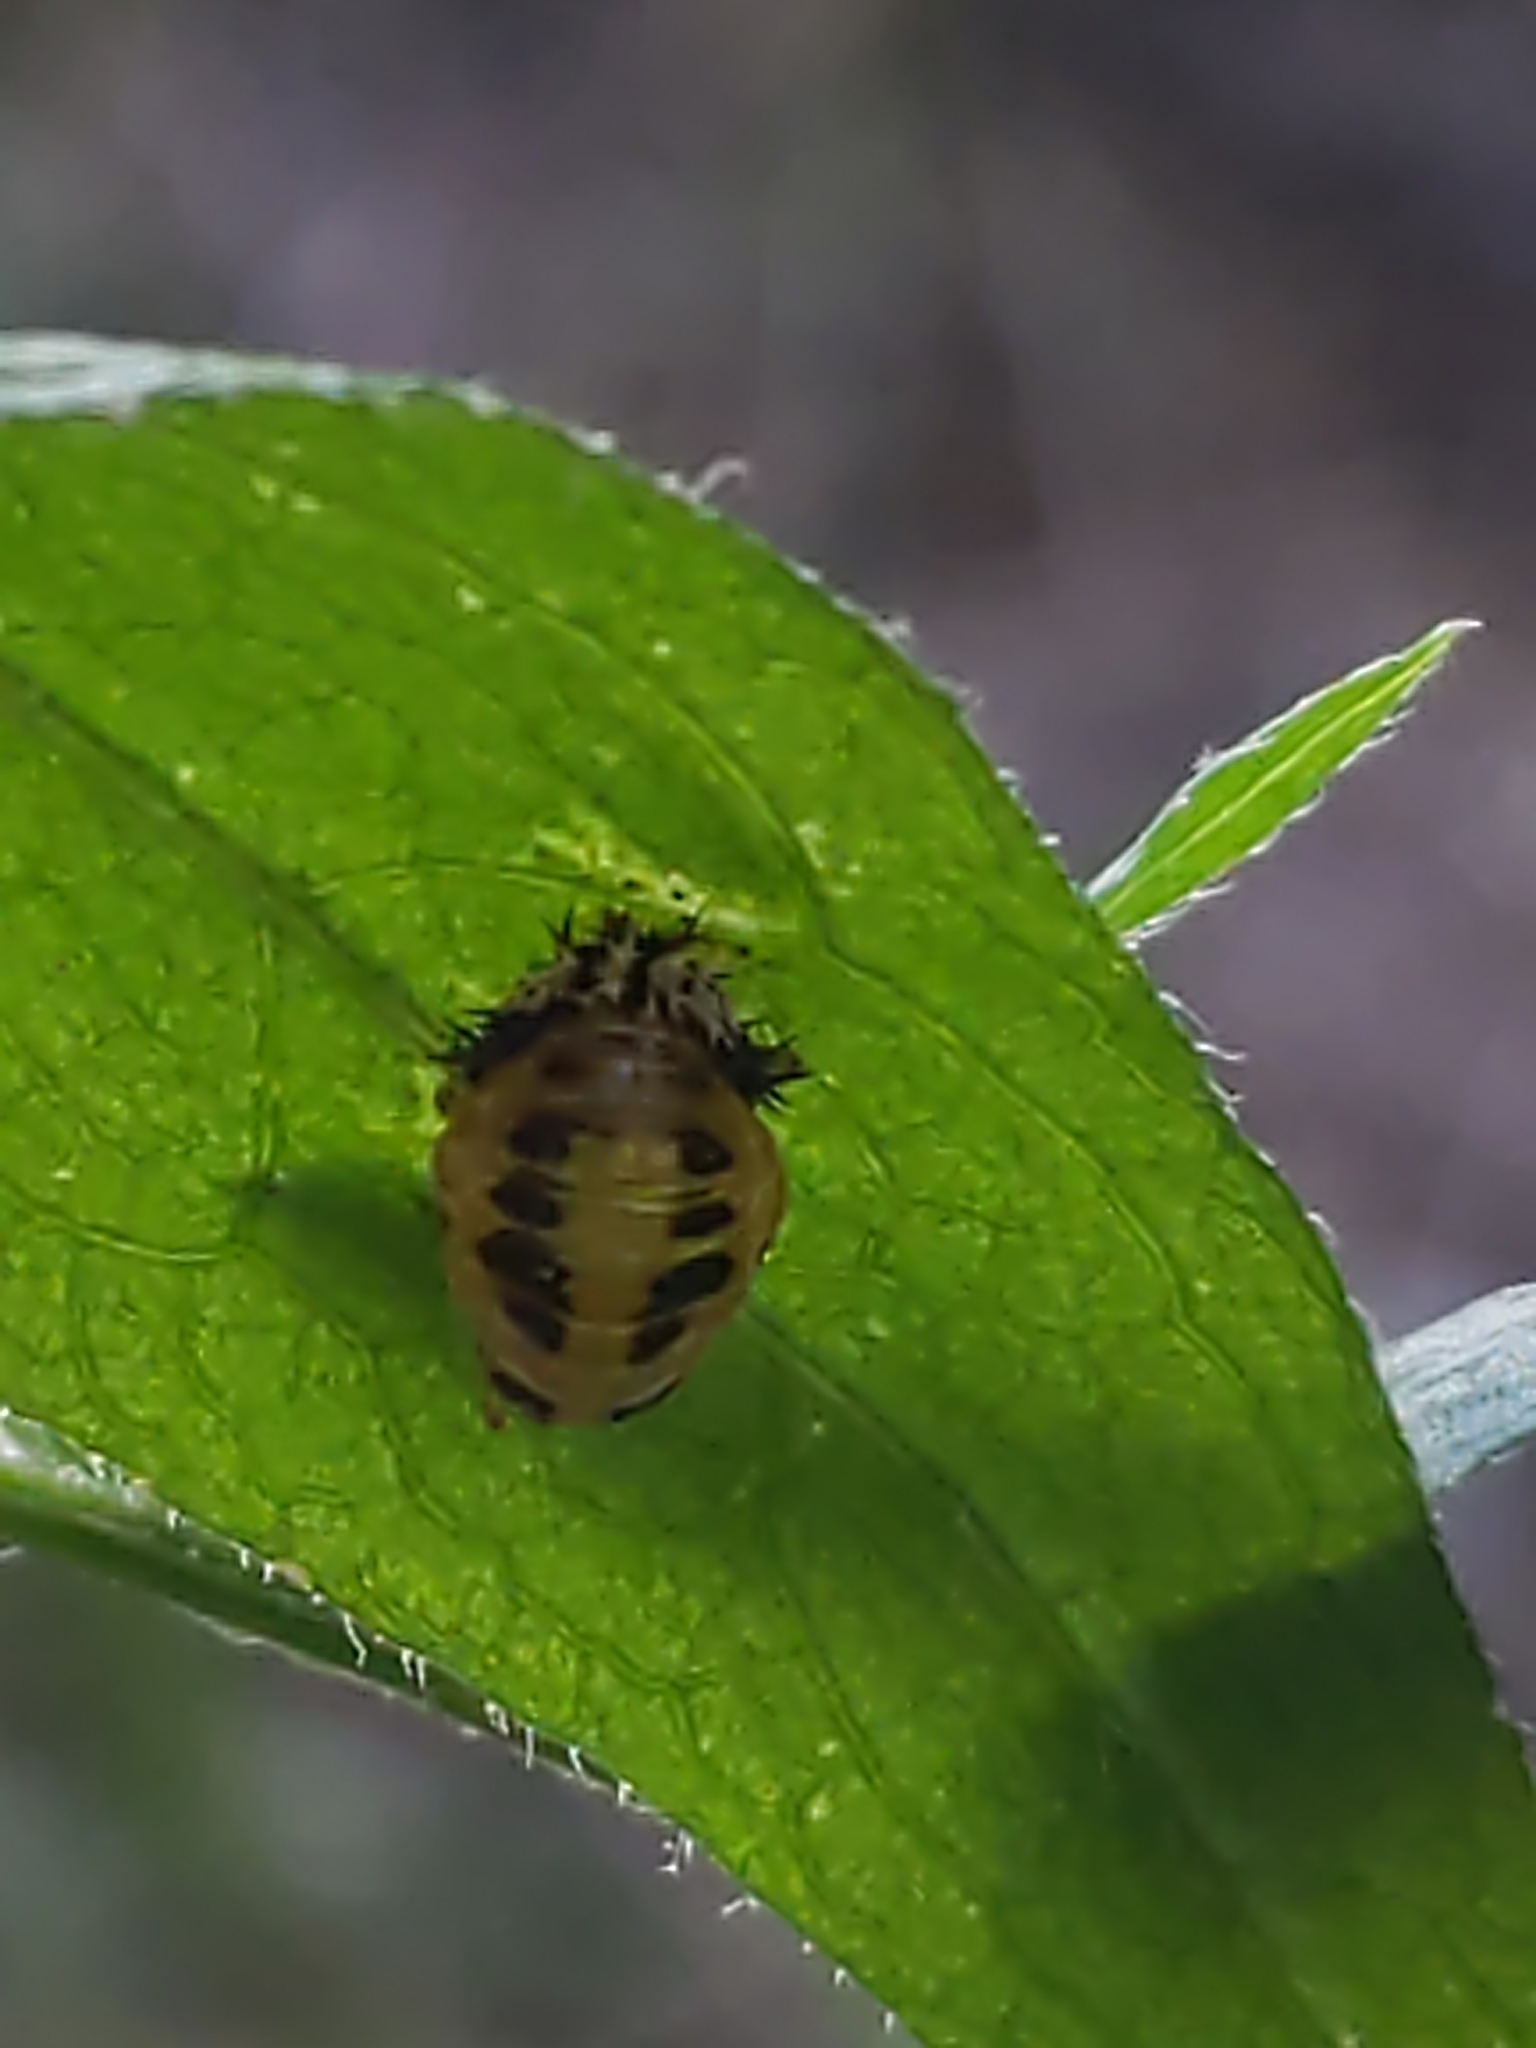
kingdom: Animalia
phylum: Arthropoda
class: Insecta
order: Coleoptera
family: Coccinellidae
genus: Harmonia
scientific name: Harmonia axyridis
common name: Harlequin ladybird
